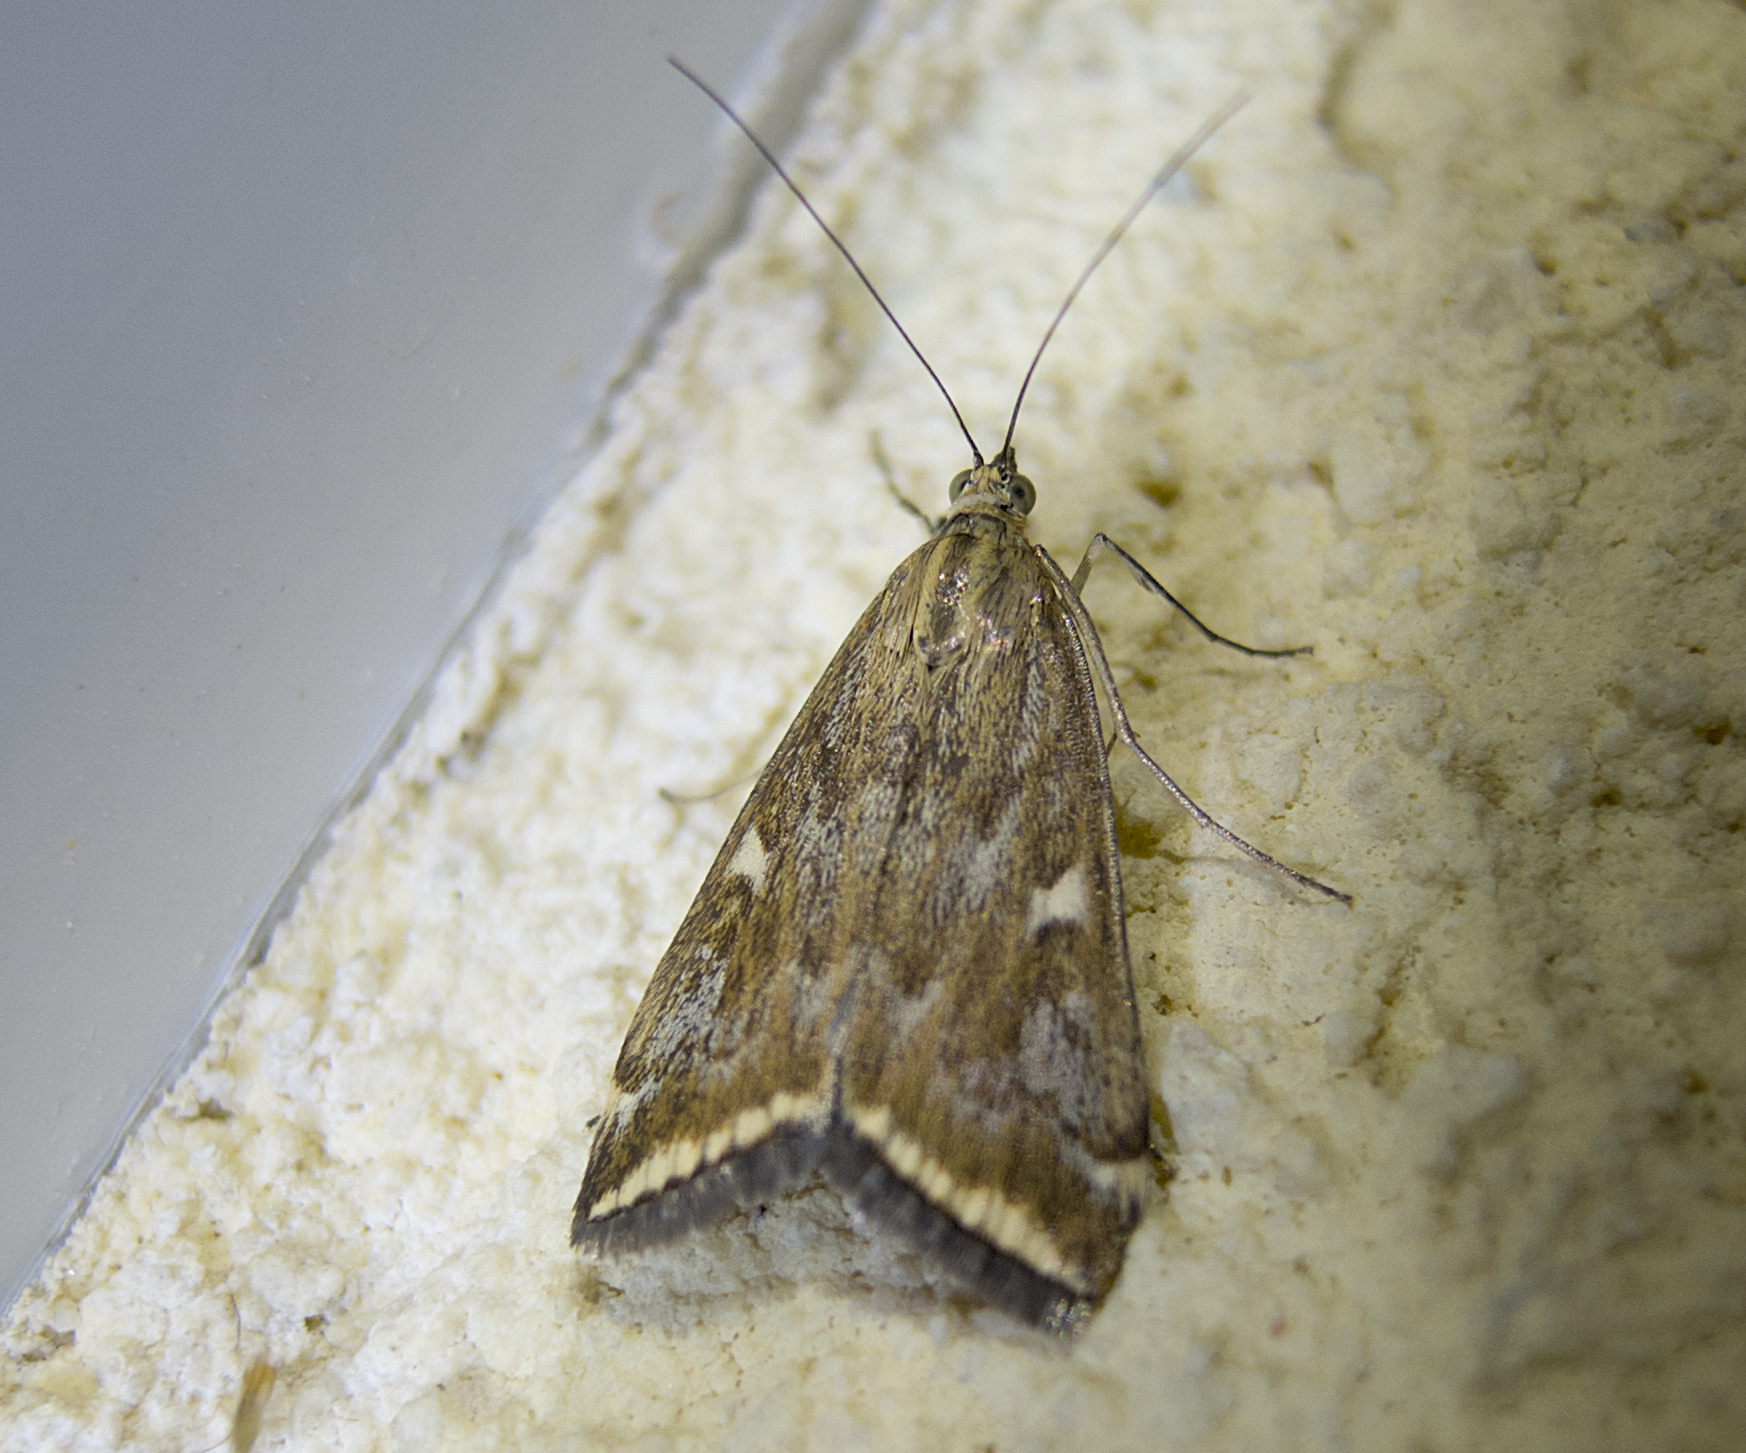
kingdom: Animalia
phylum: Arthropoda
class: Insecta
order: Lepidoptera
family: Crambidae
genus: Loxostege
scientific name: Loxostege sticticalis
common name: Crambid moth
